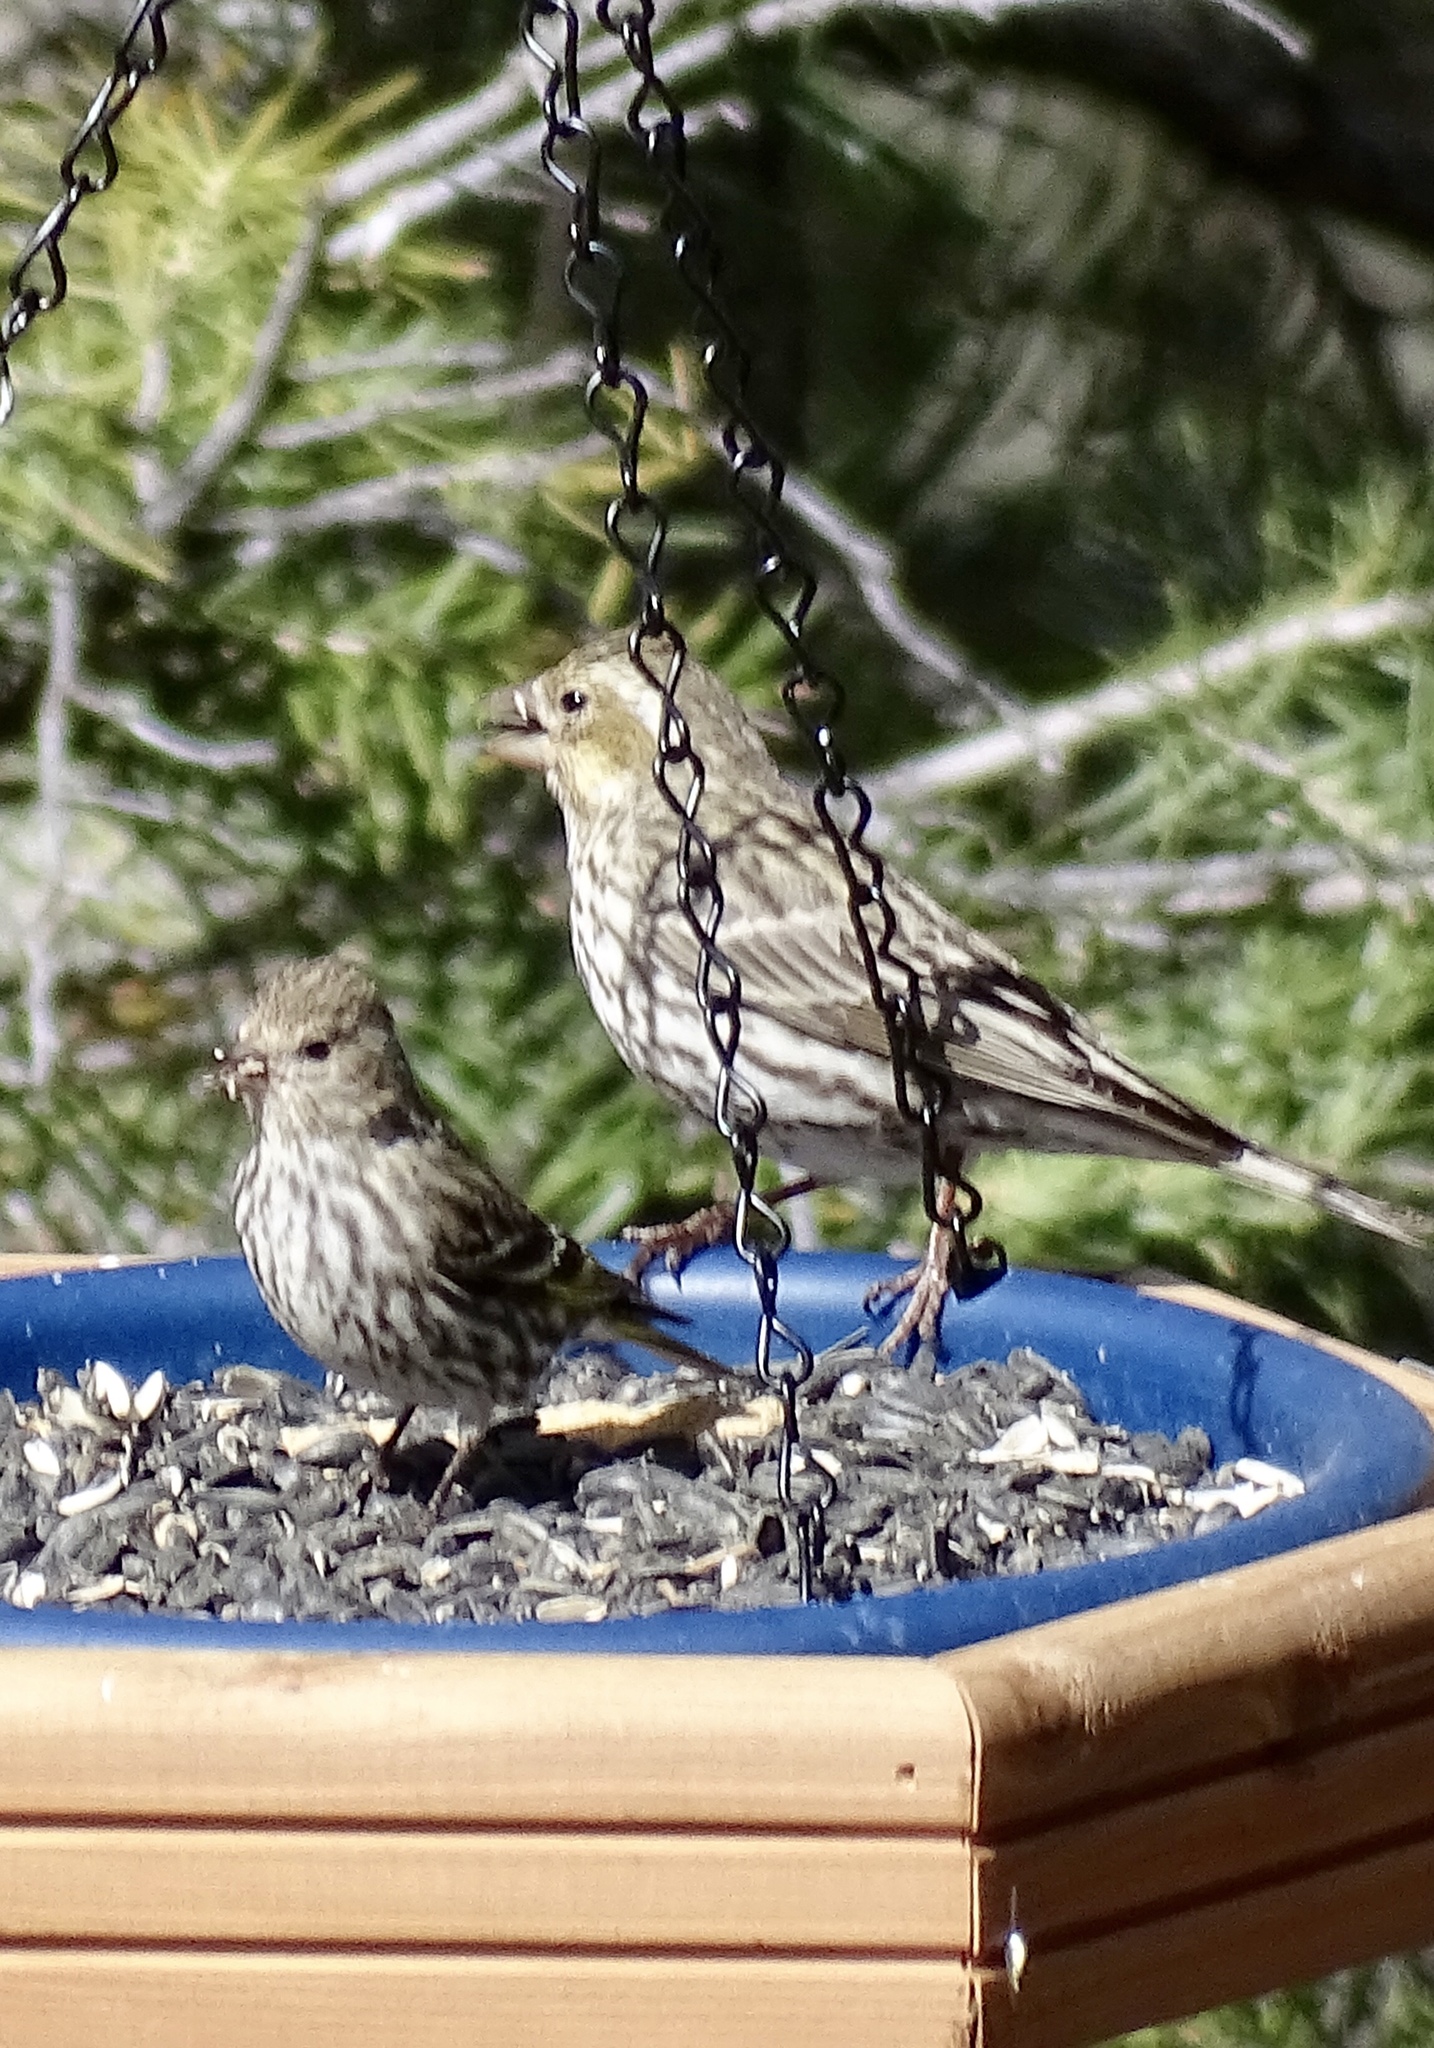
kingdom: Animalia
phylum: Chordata
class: Aves
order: Passeriformes
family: Fringillidae
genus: Spinus
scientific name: Spinus pinus
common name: Pine siskin
